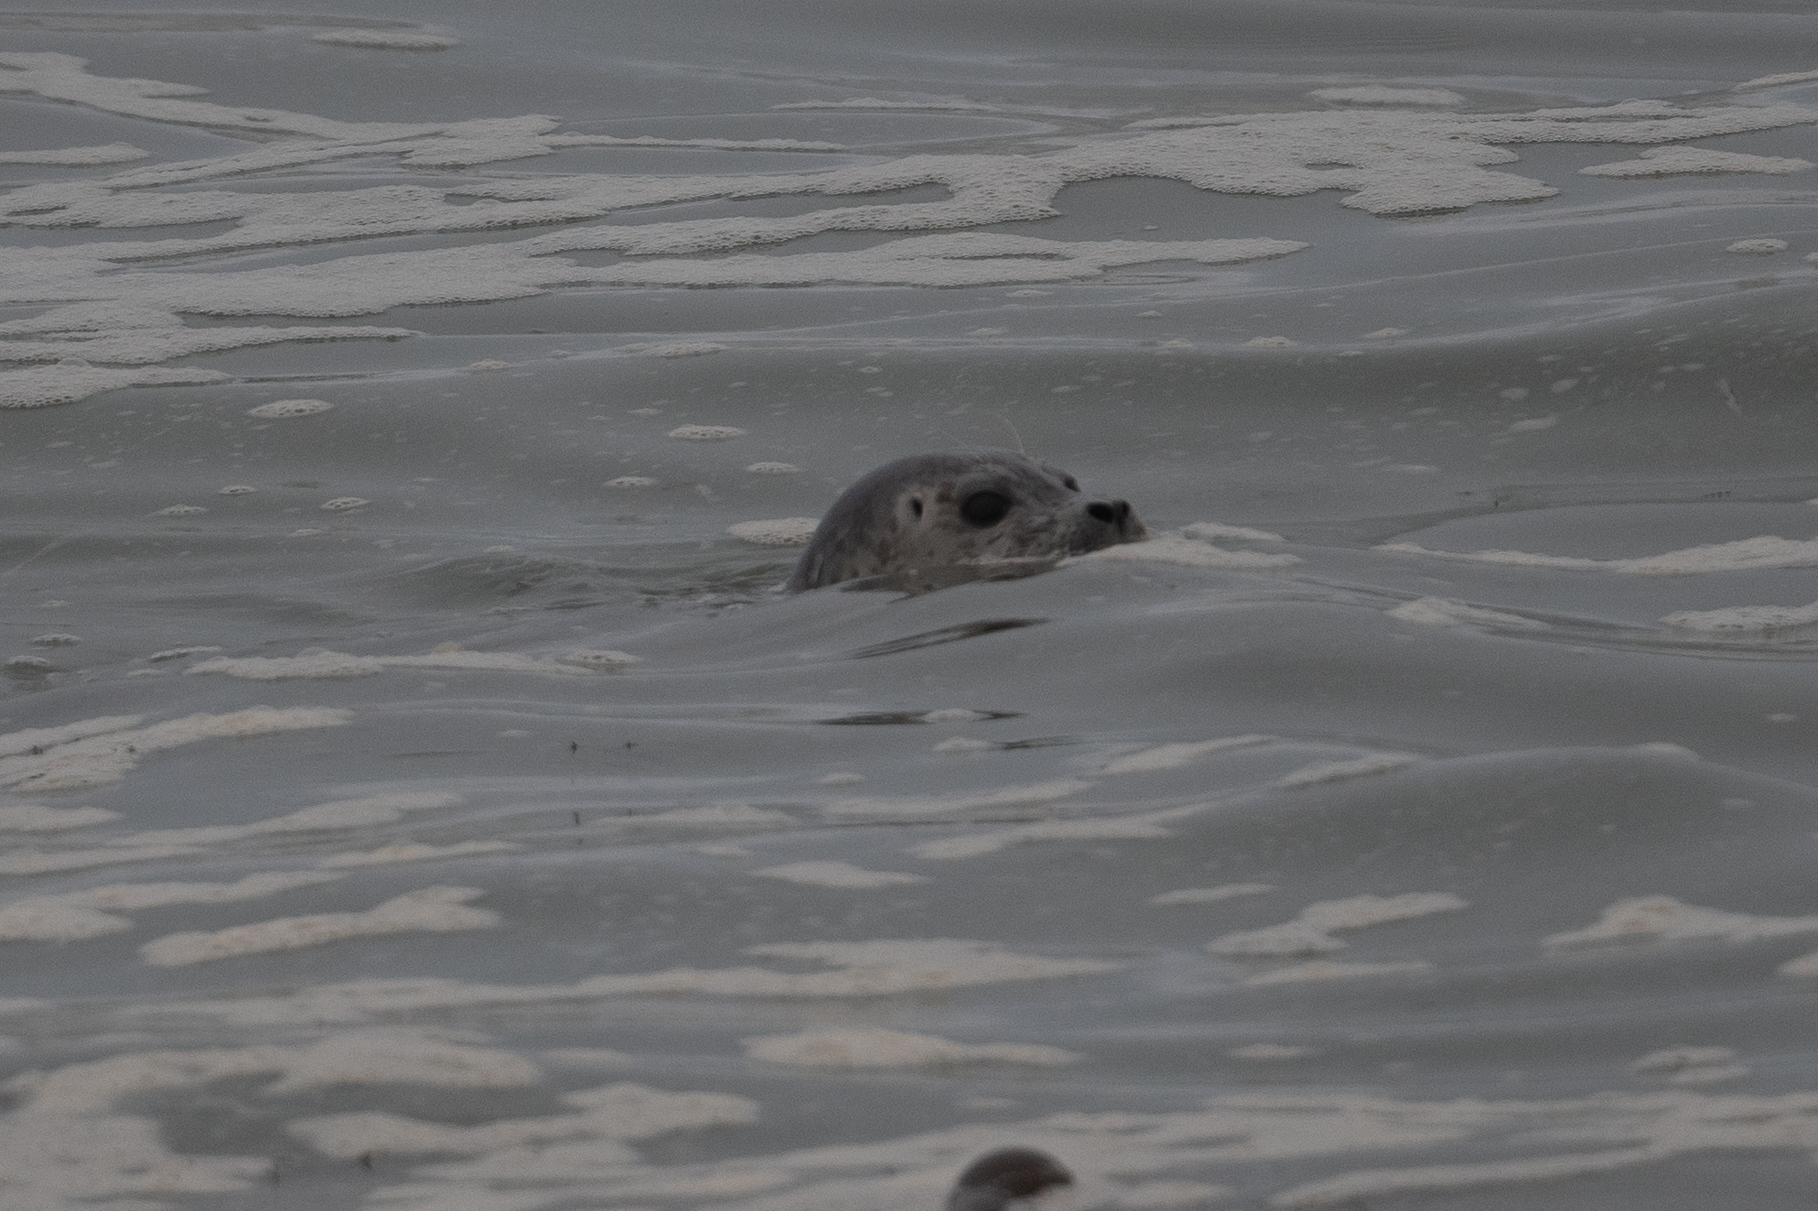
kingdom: Animalia
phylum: Chordata
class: Mammalia
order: Carnivora
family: Phocidae
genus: Phoca
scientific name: Phoca vitulina
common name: Harbor seal
